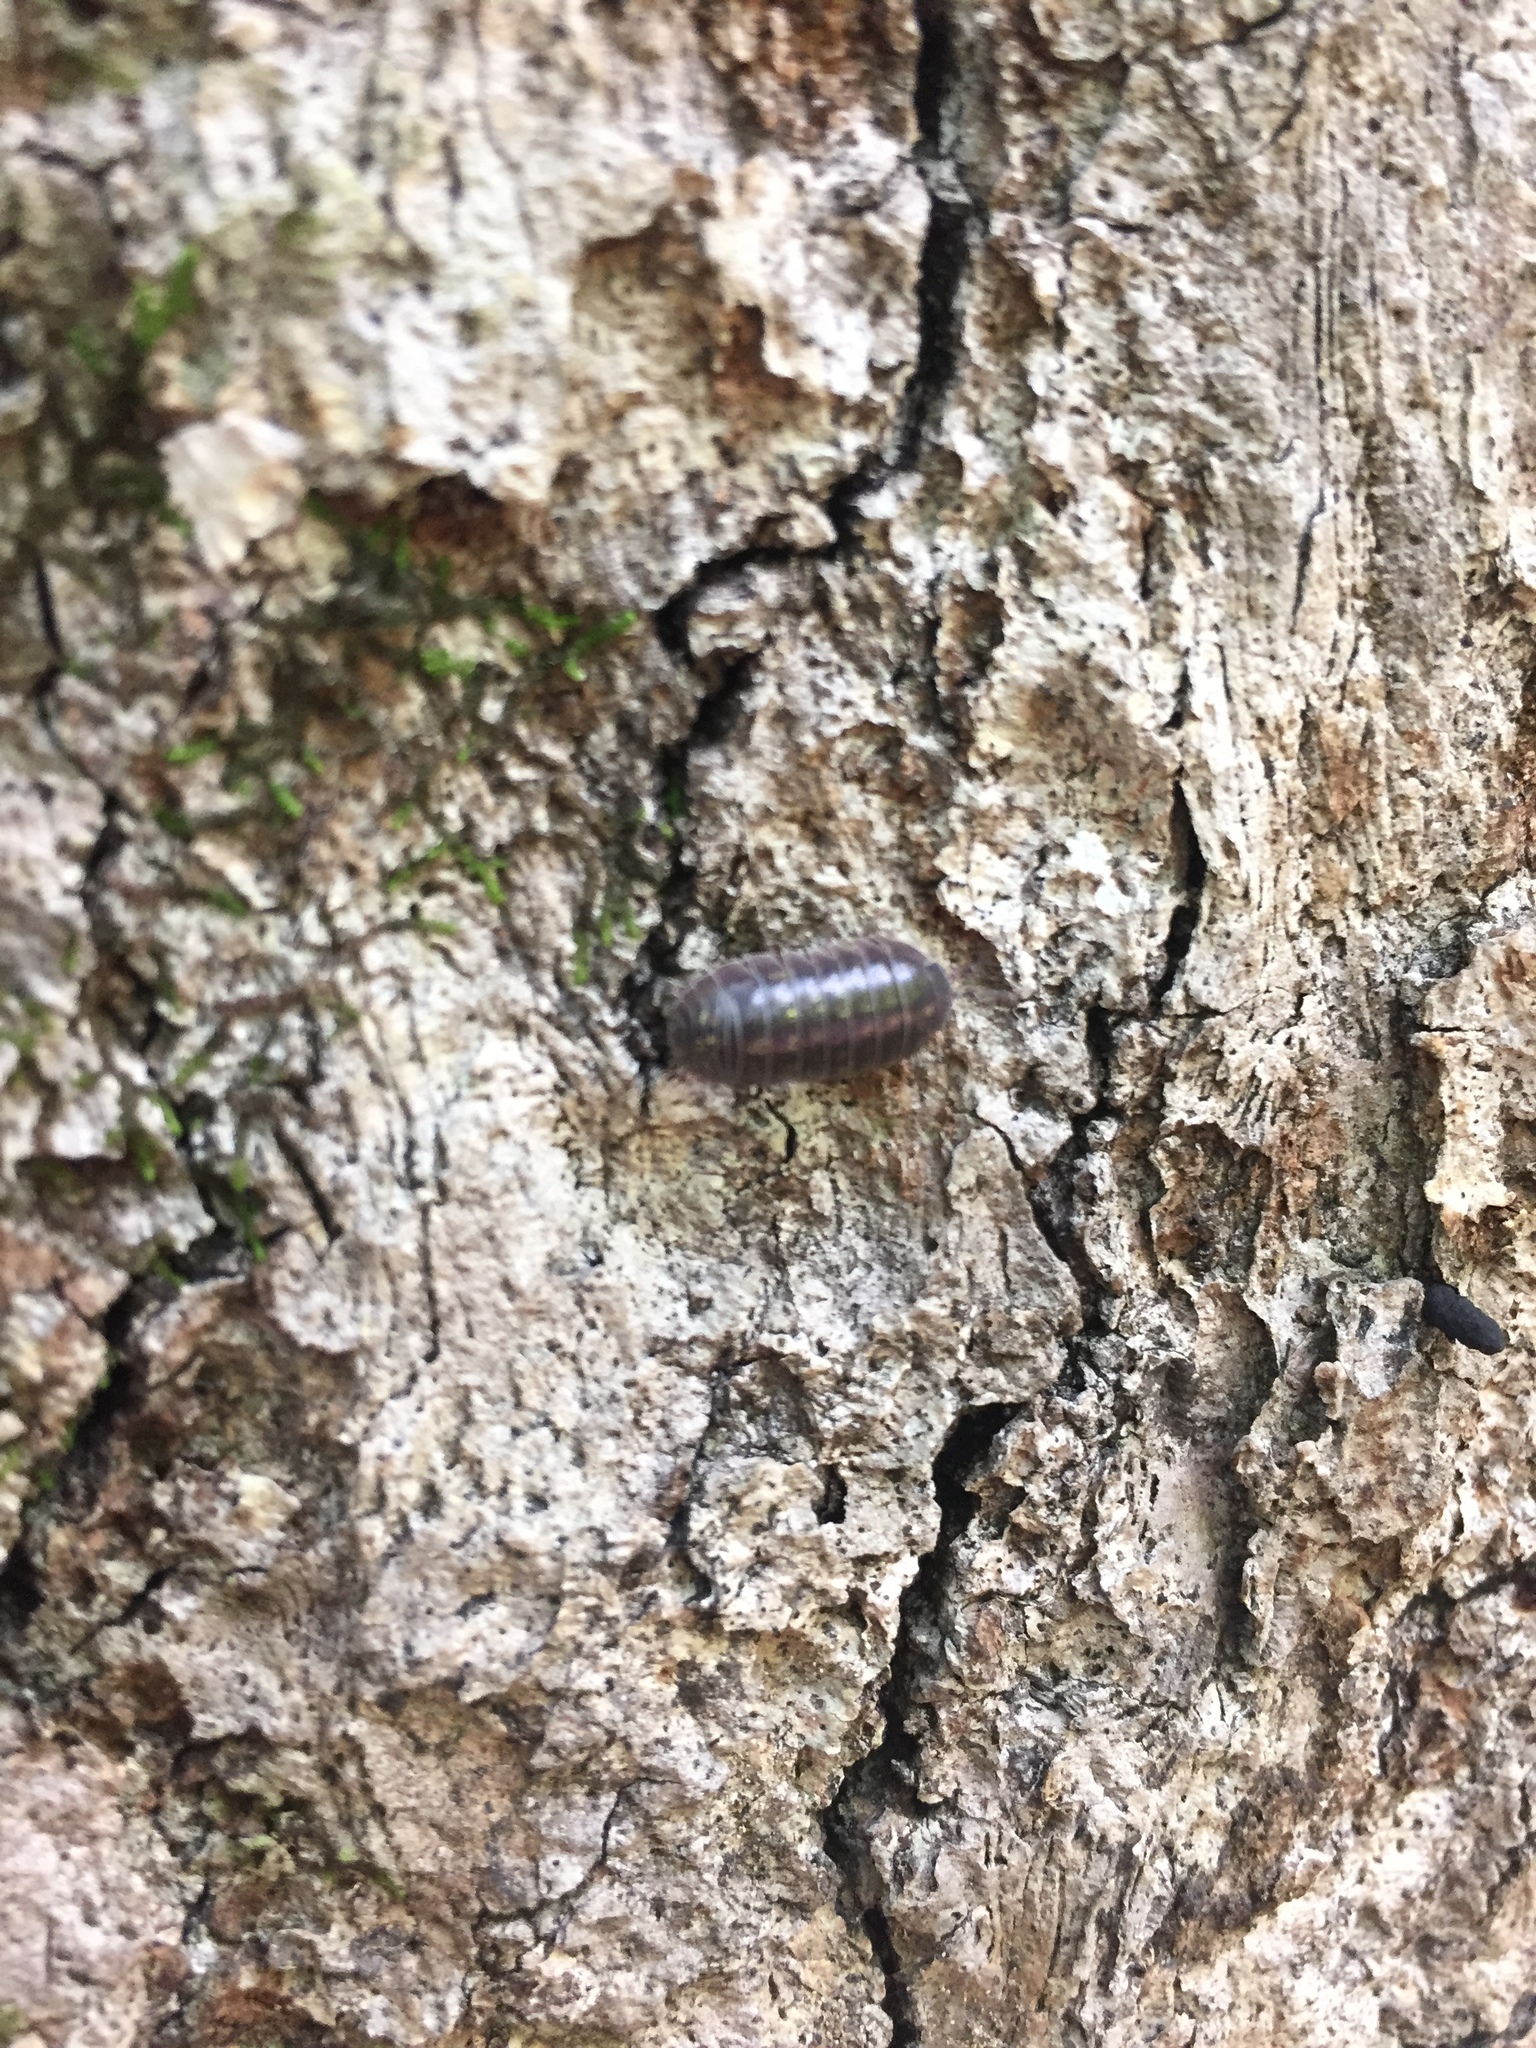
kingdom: Animalia
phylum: Arthropoda
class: Malacostraca
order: Isopoda
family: Armadillidiidae
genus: Armadillidium
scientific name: Armadillidium vulgare
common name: Common pill woodlouse
